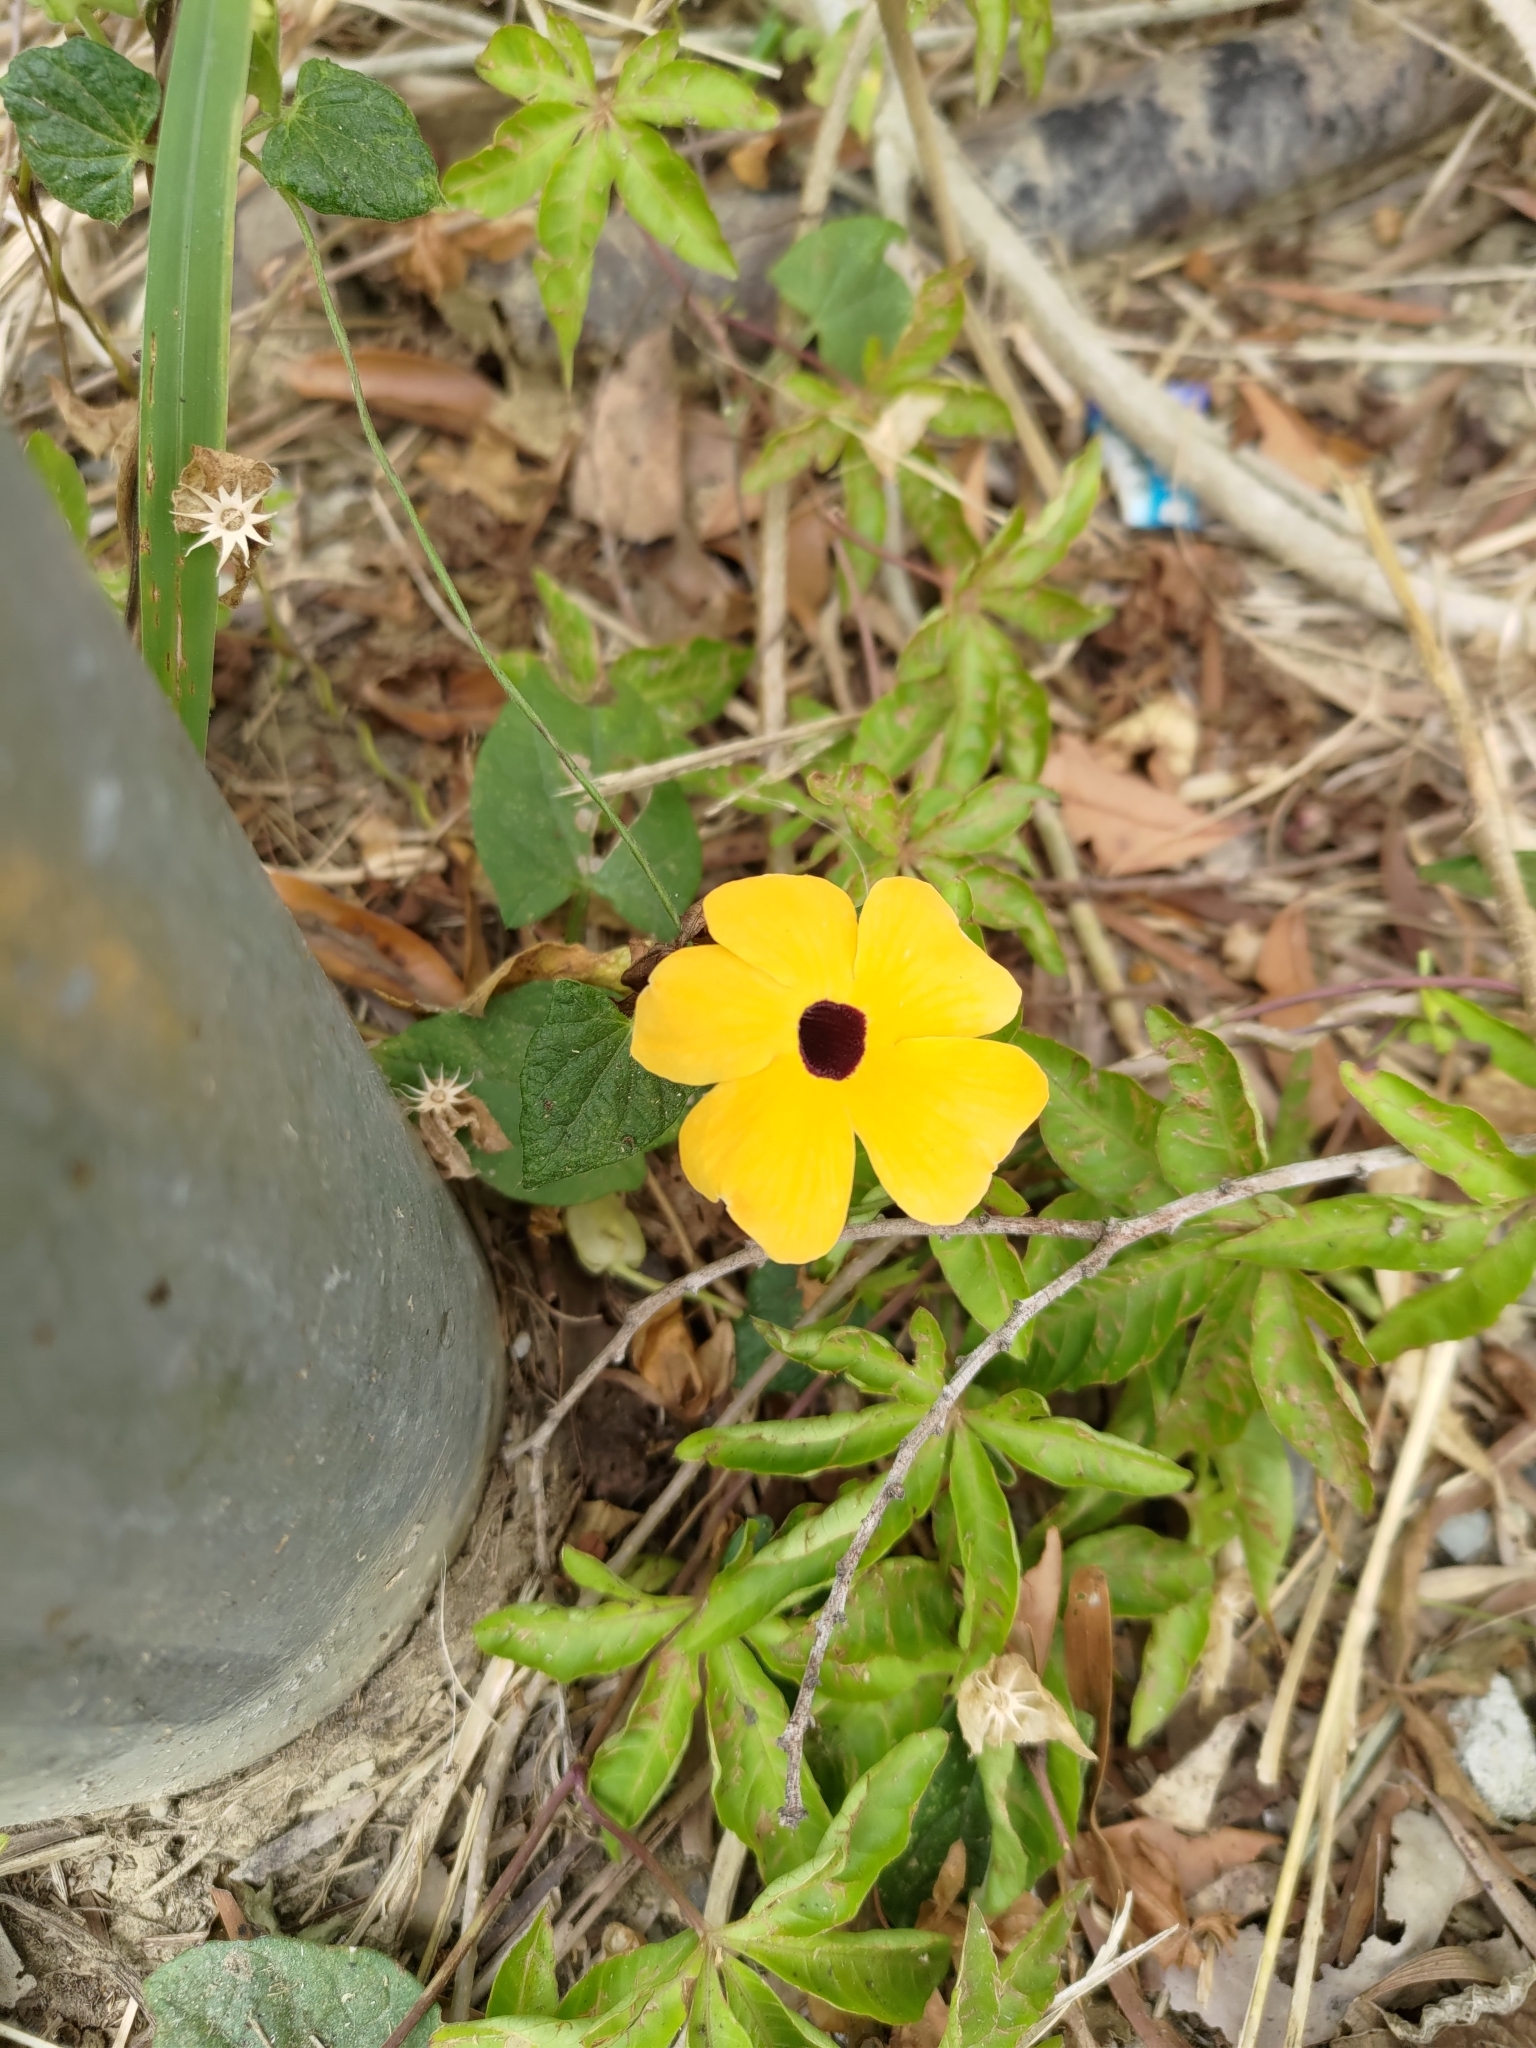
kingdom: Plantae
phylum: Tracheophyta
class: Magnoliopsida
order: Lamiales
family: Acanthaceae
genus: Thunbergia
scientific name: Thunbergia alata
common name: Blackeyed susan vine
